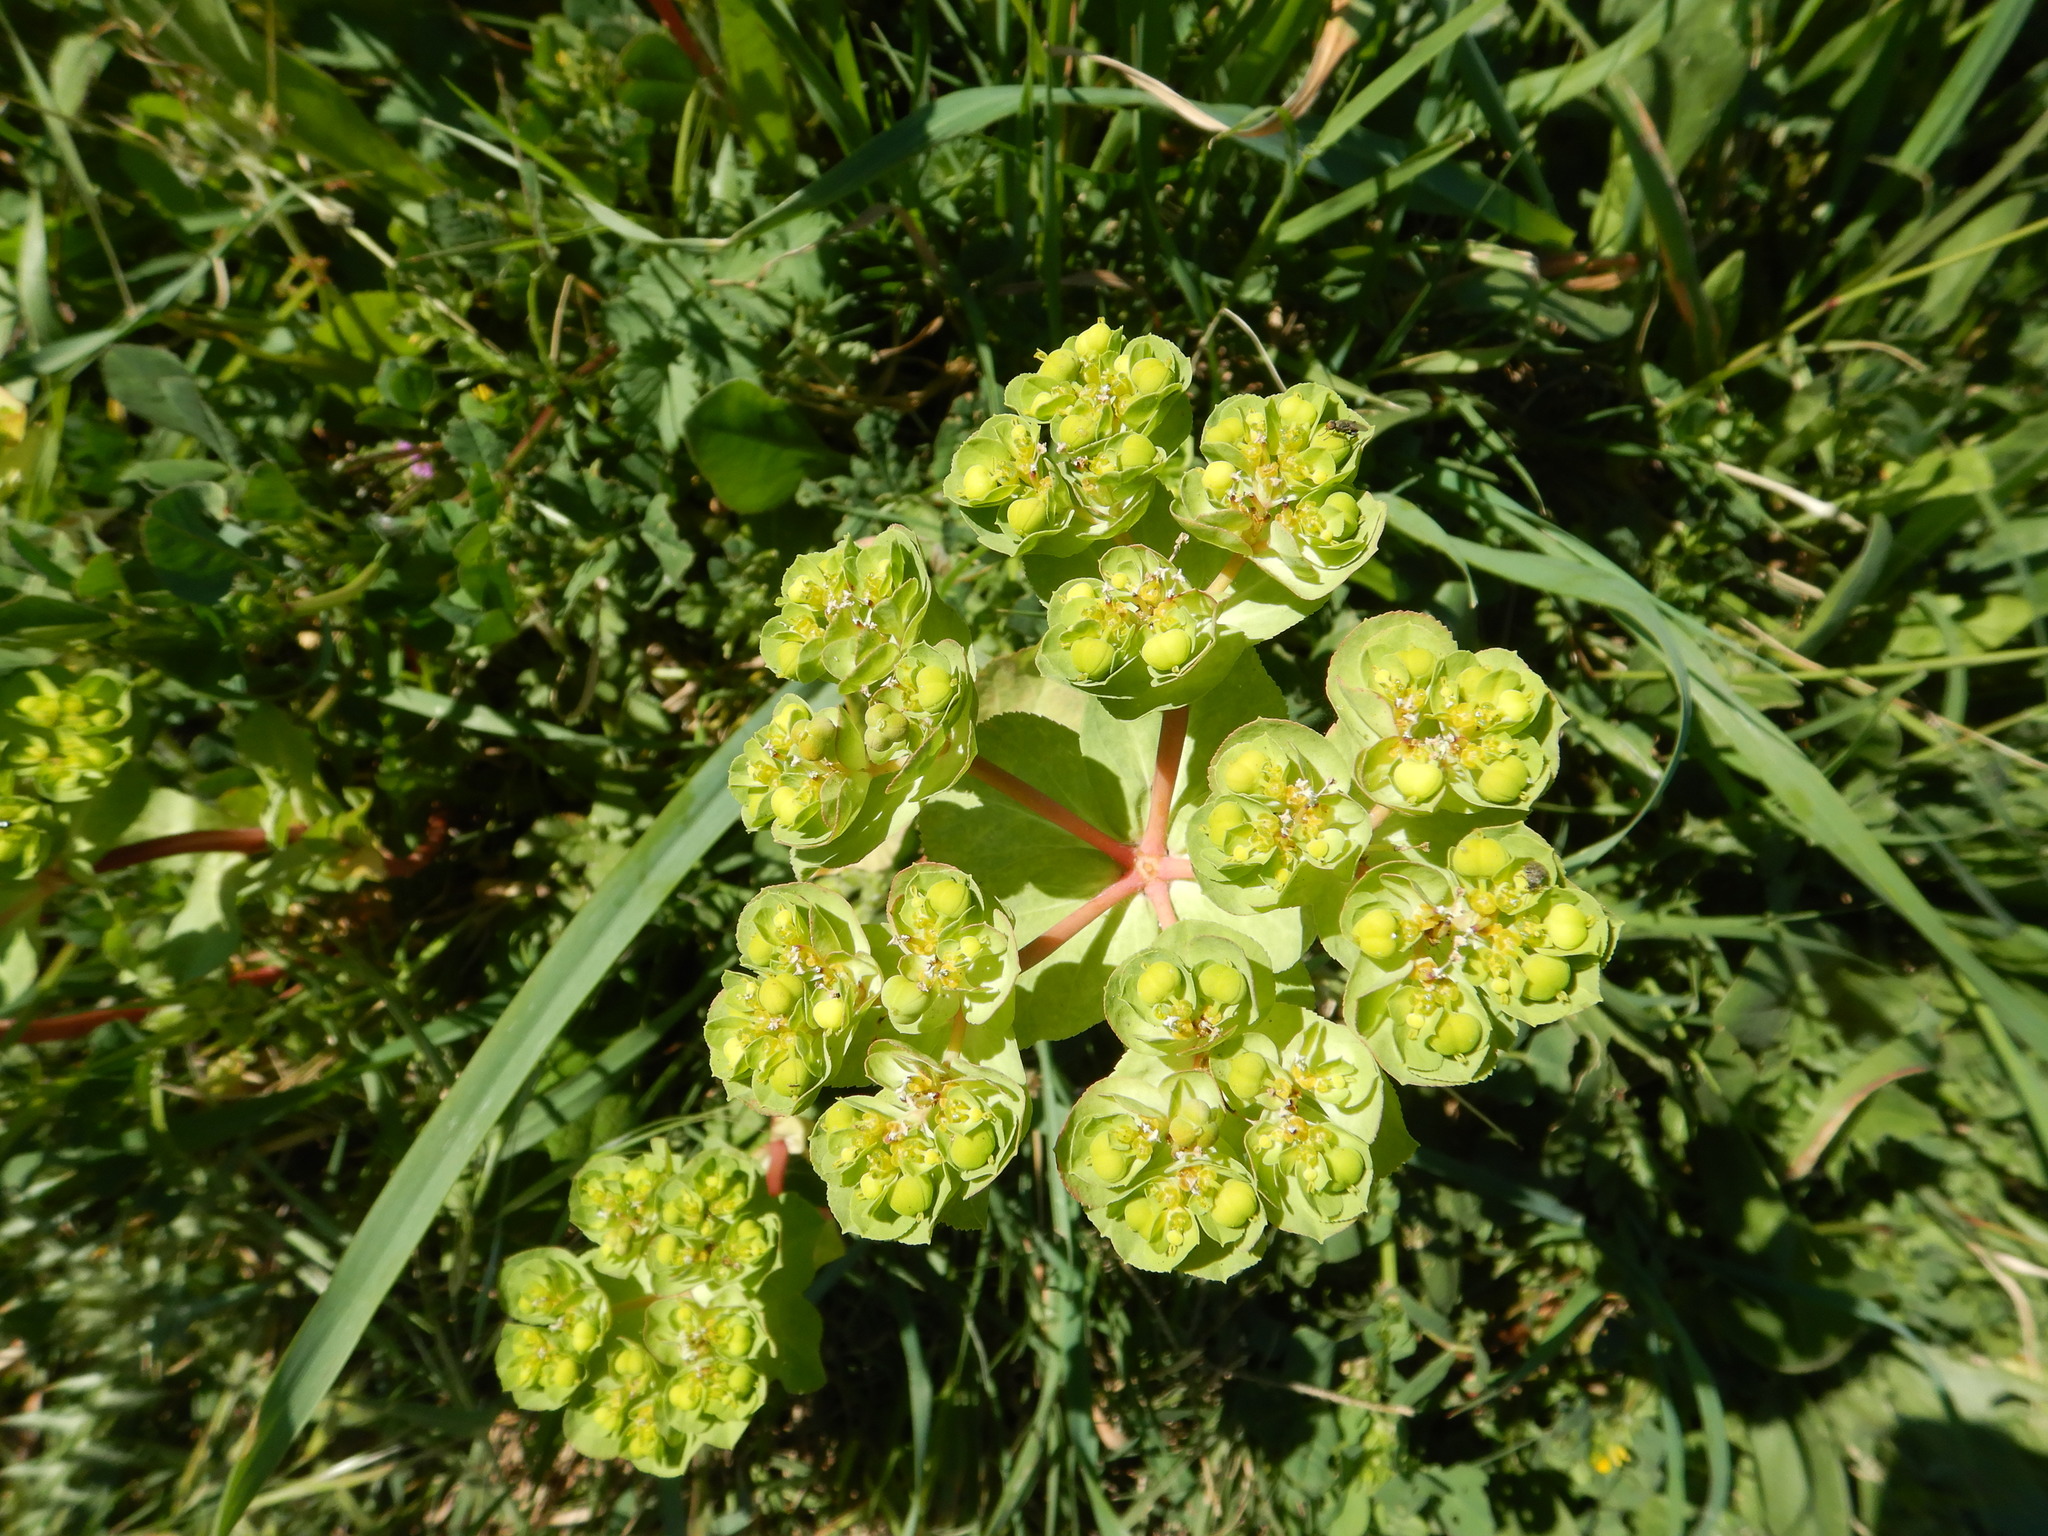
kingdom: Plantae
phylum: Tracheophyta
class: Magnoliopsida
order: Malpighiales
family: Euphorbiaceae
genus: Euphorbia
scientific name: Euphorbia helioscopia
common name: Sun spurge
